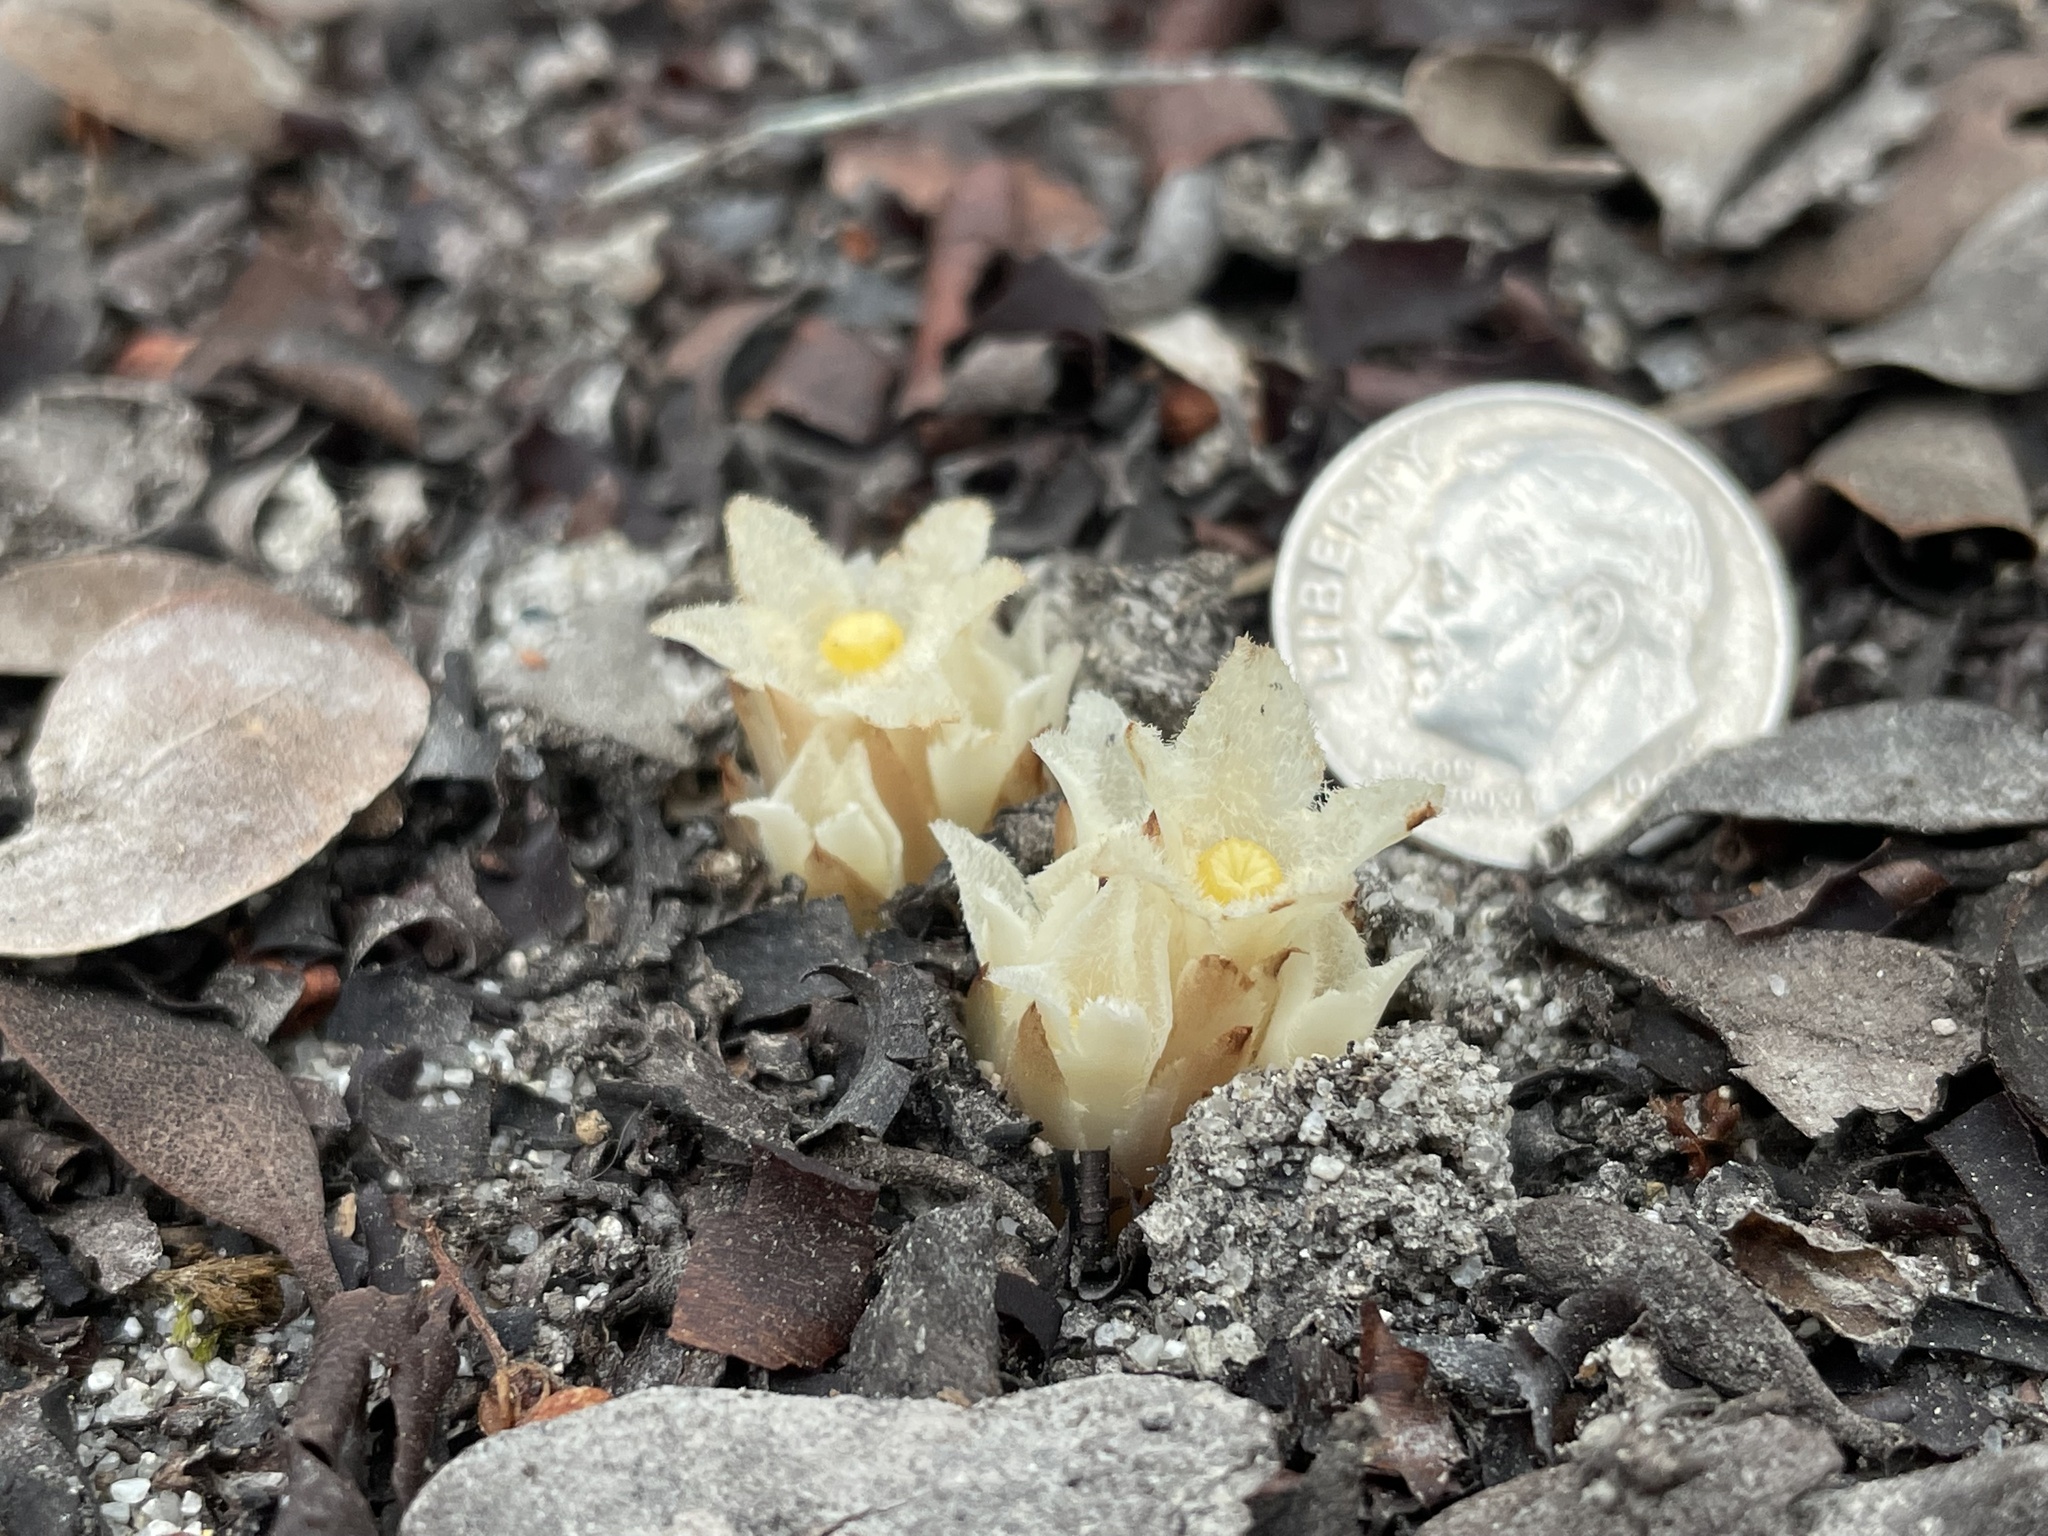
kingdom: Plantae
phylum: Tracheophyta
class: Magnoliopsida
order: Ericales
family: Ericaceae
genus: Pityopus
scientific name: Pityopus californica
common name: California pinefoot
